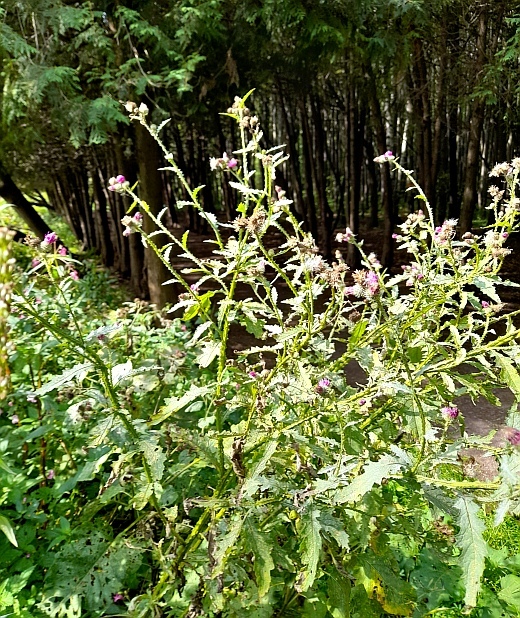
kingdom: Plantae
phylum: Tracheophyta
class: Magnoliopsida
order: Asterales
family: Asteraceae
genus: Carduus
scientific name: Carduus crispus
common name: Welted thistle
